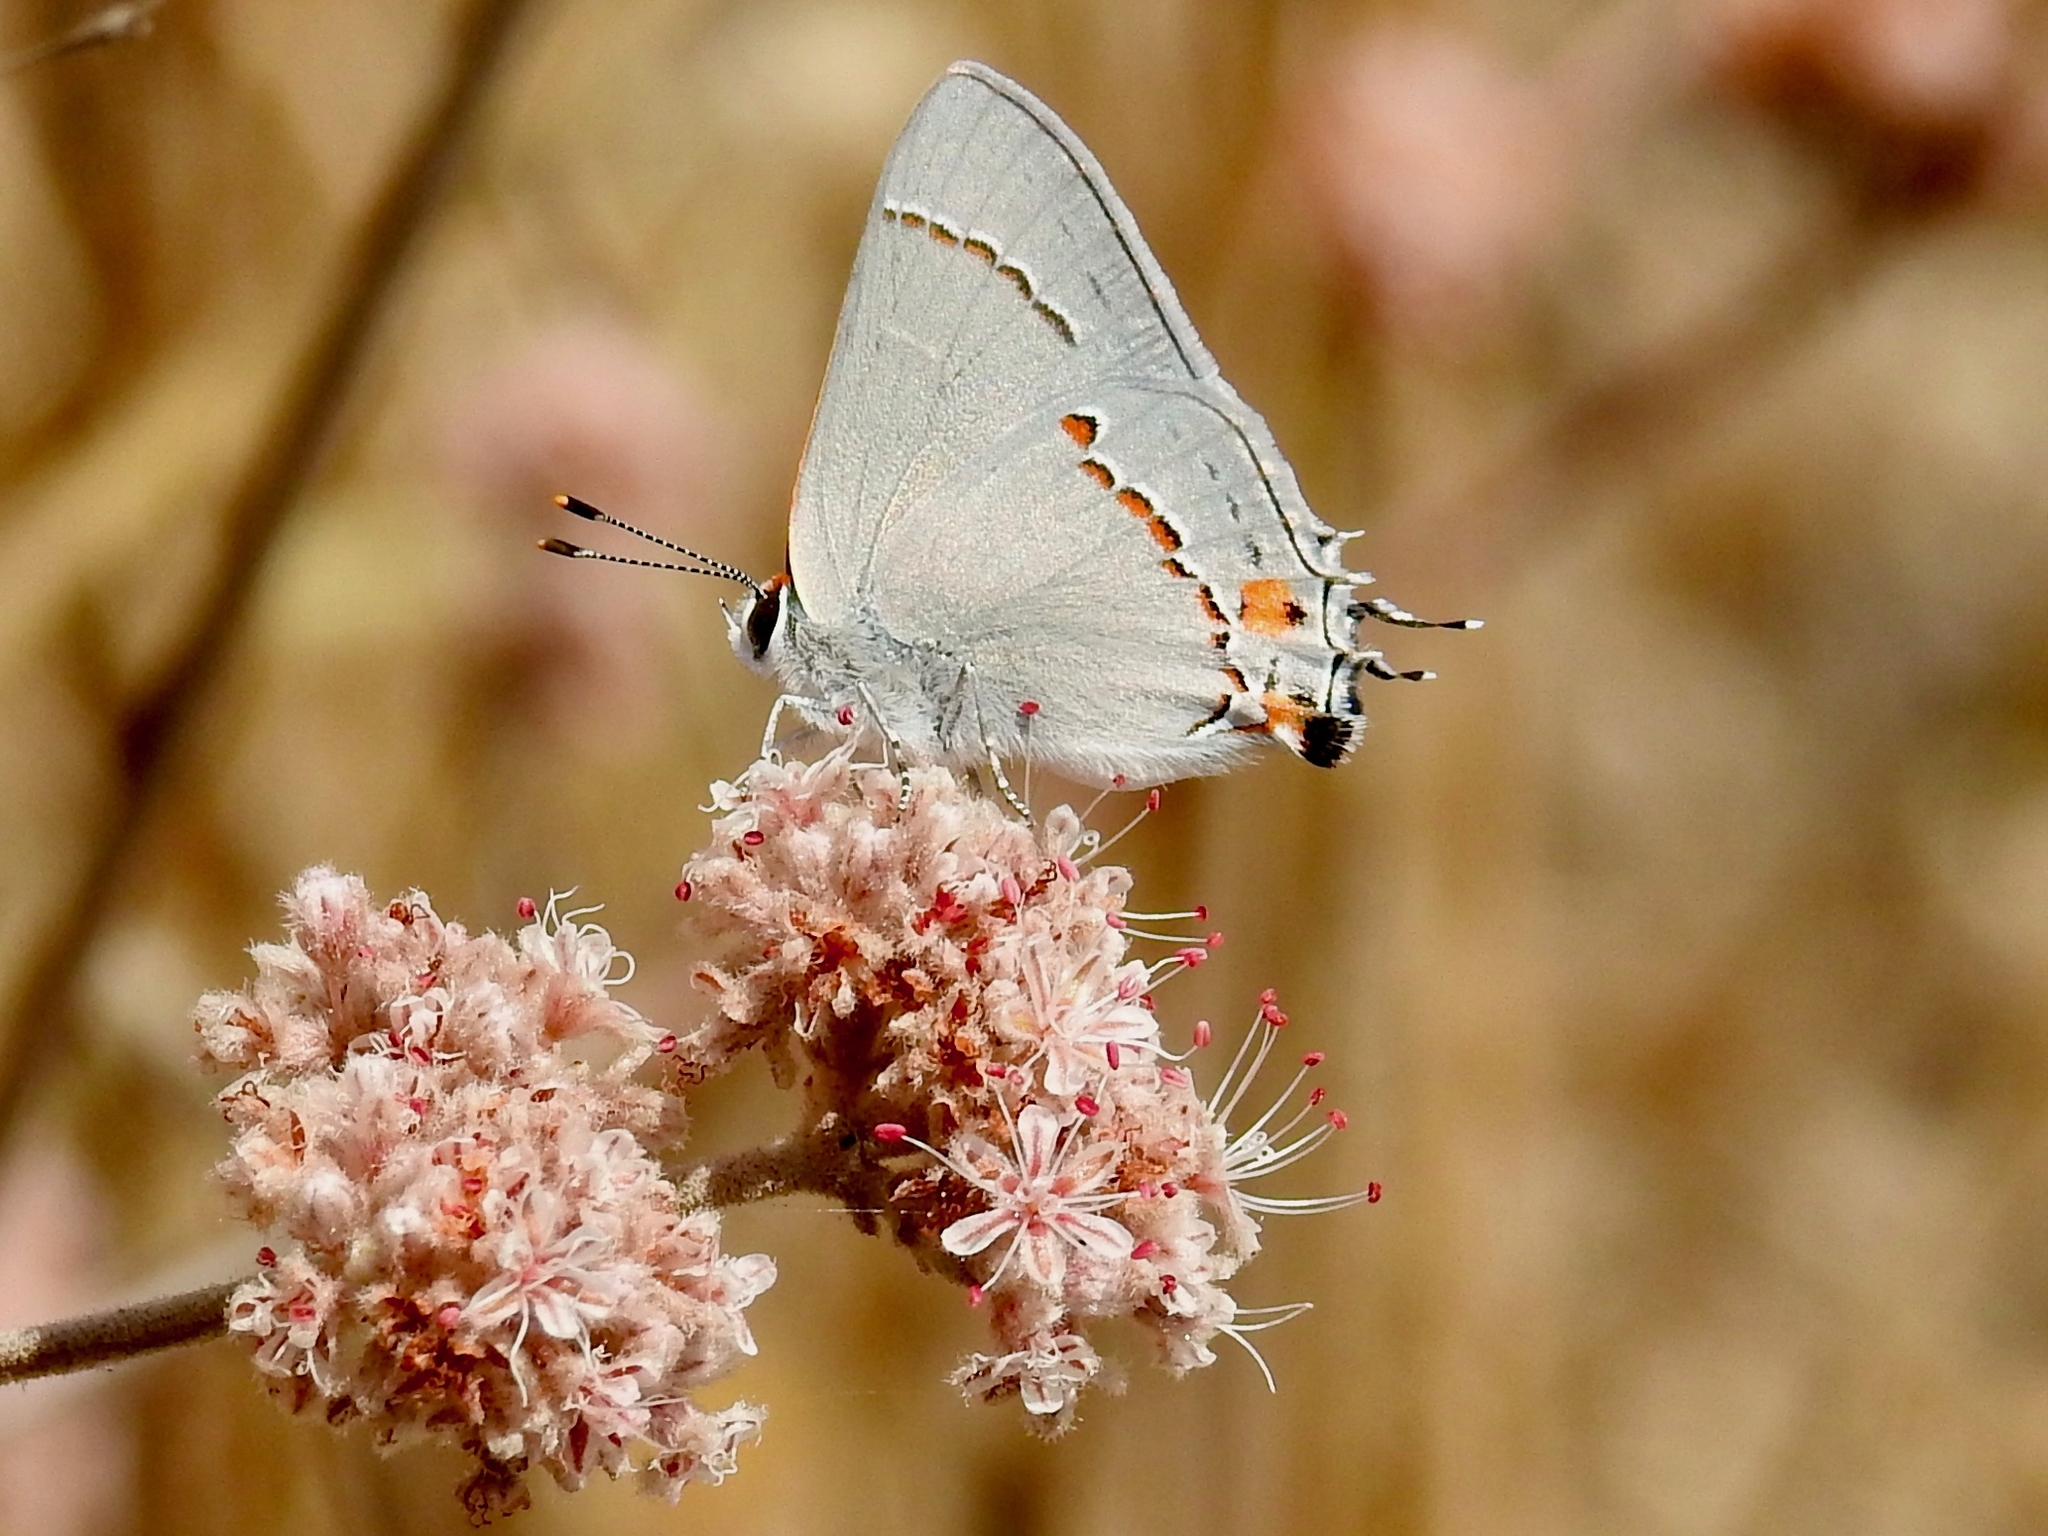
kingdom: Animalia
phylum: Arthropoda
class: Insecta
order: Lepidoptera
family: Lycaenidae
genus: Strymon
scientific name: Strymon melinus
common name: Gray hairstreak
